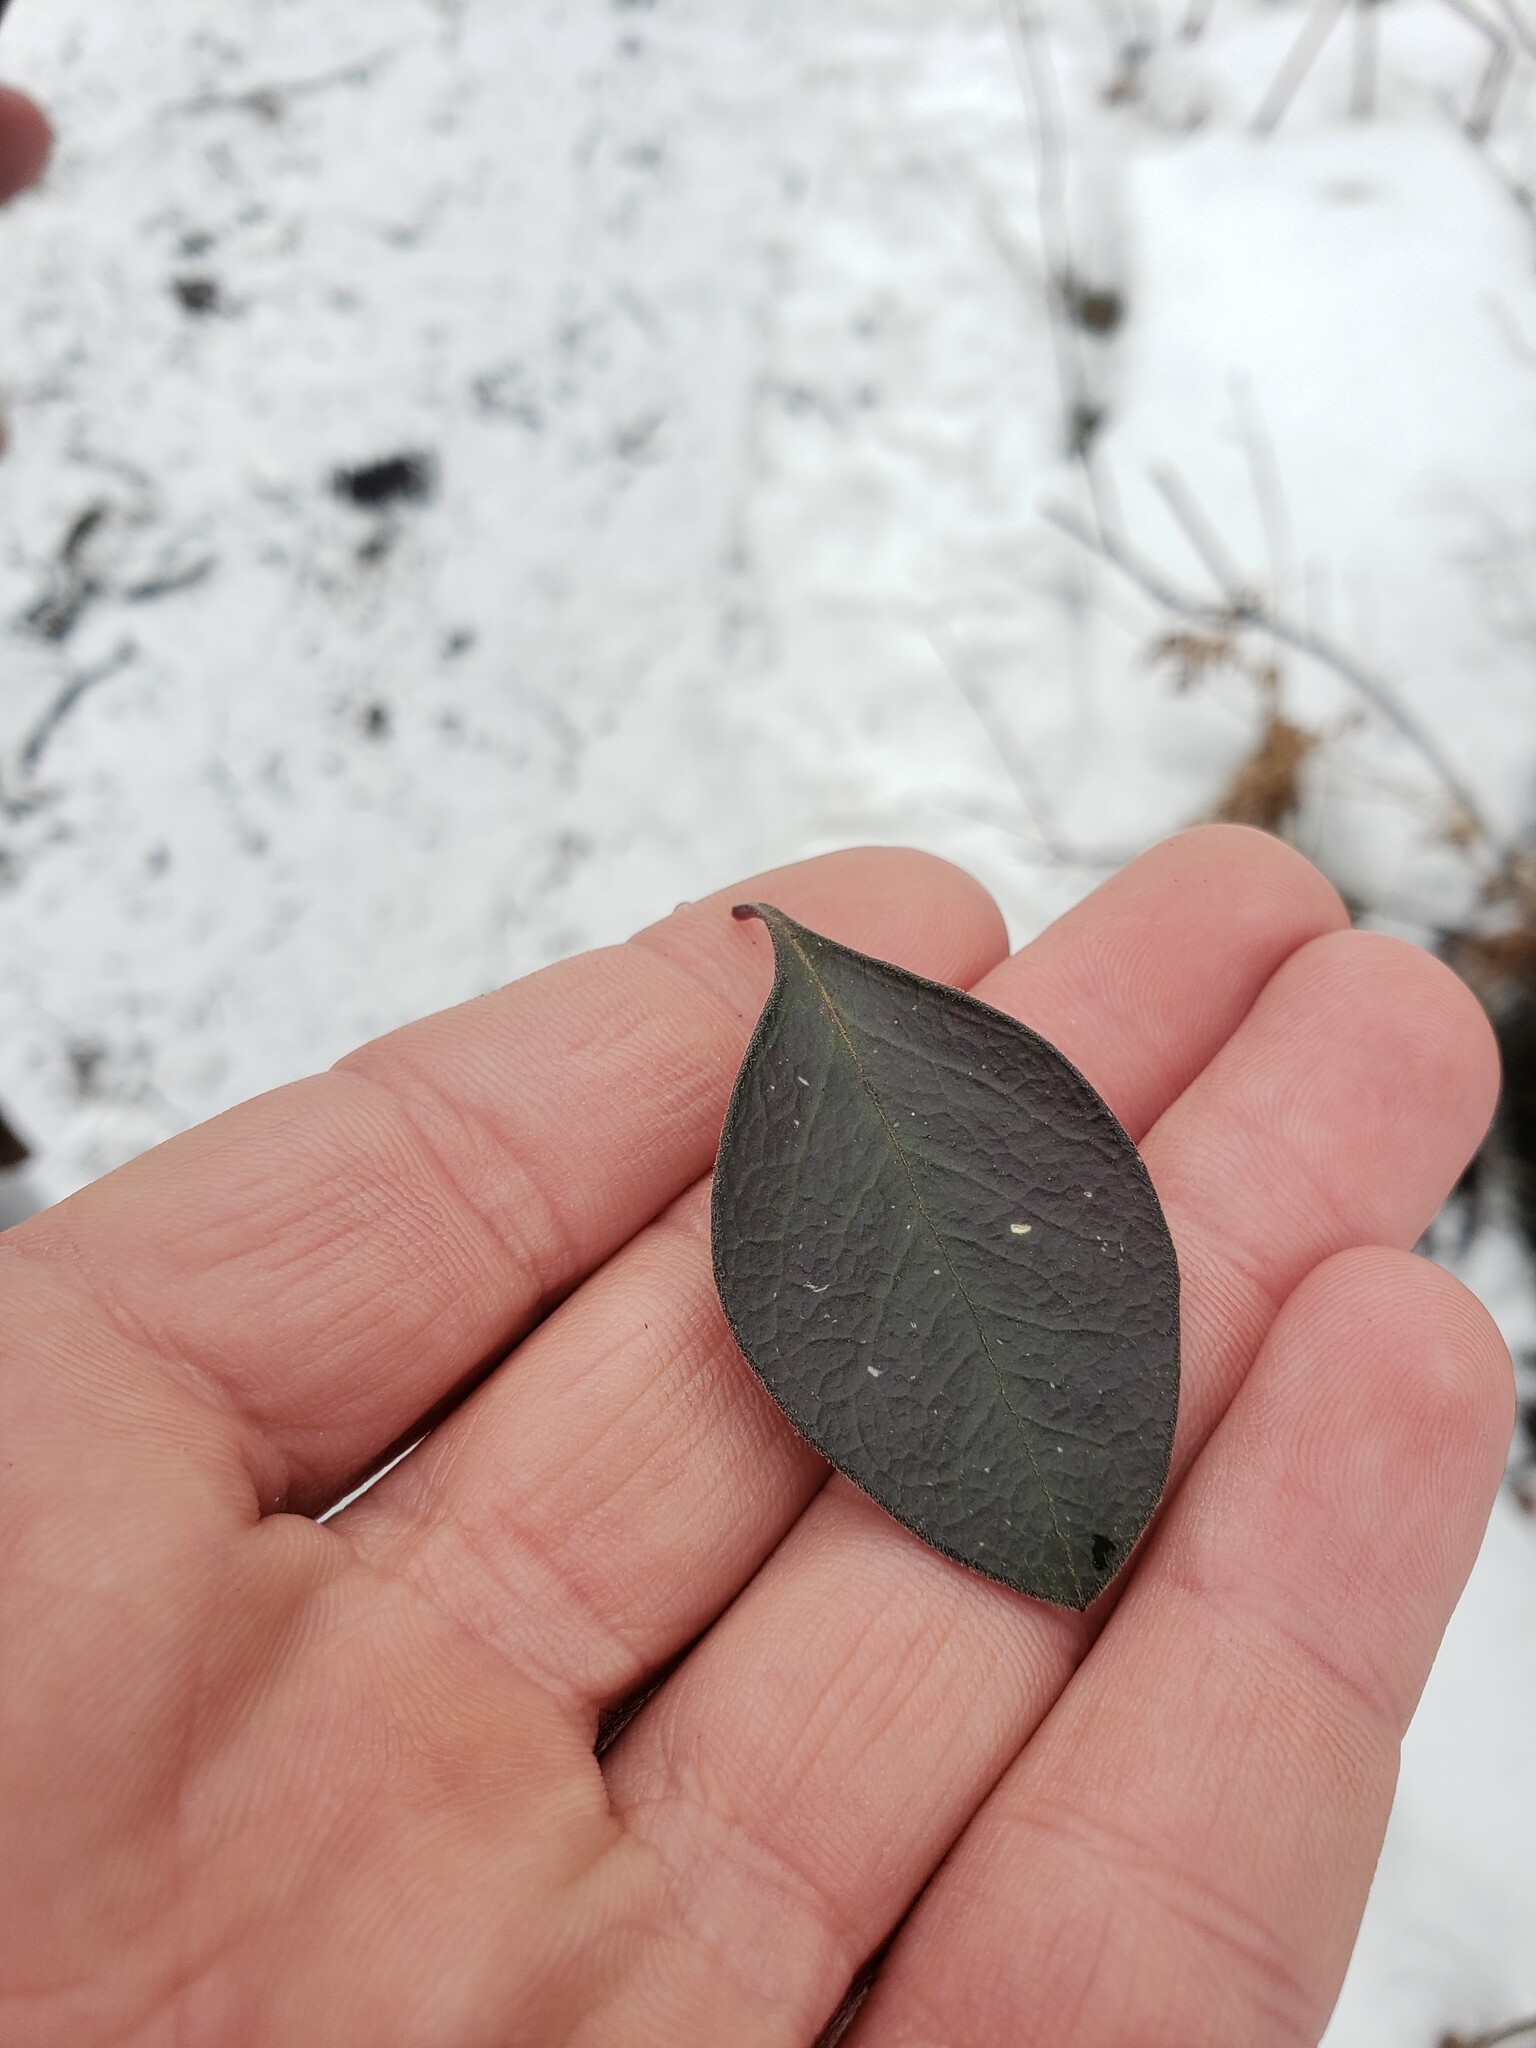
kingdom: Plantae
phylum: Tracheophyta
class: Magnoliopsida
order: Fabales
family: Polygalaceae
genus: Polygaloides
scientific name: Polygaloides paucifolia
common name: Bird-on-the-wing
